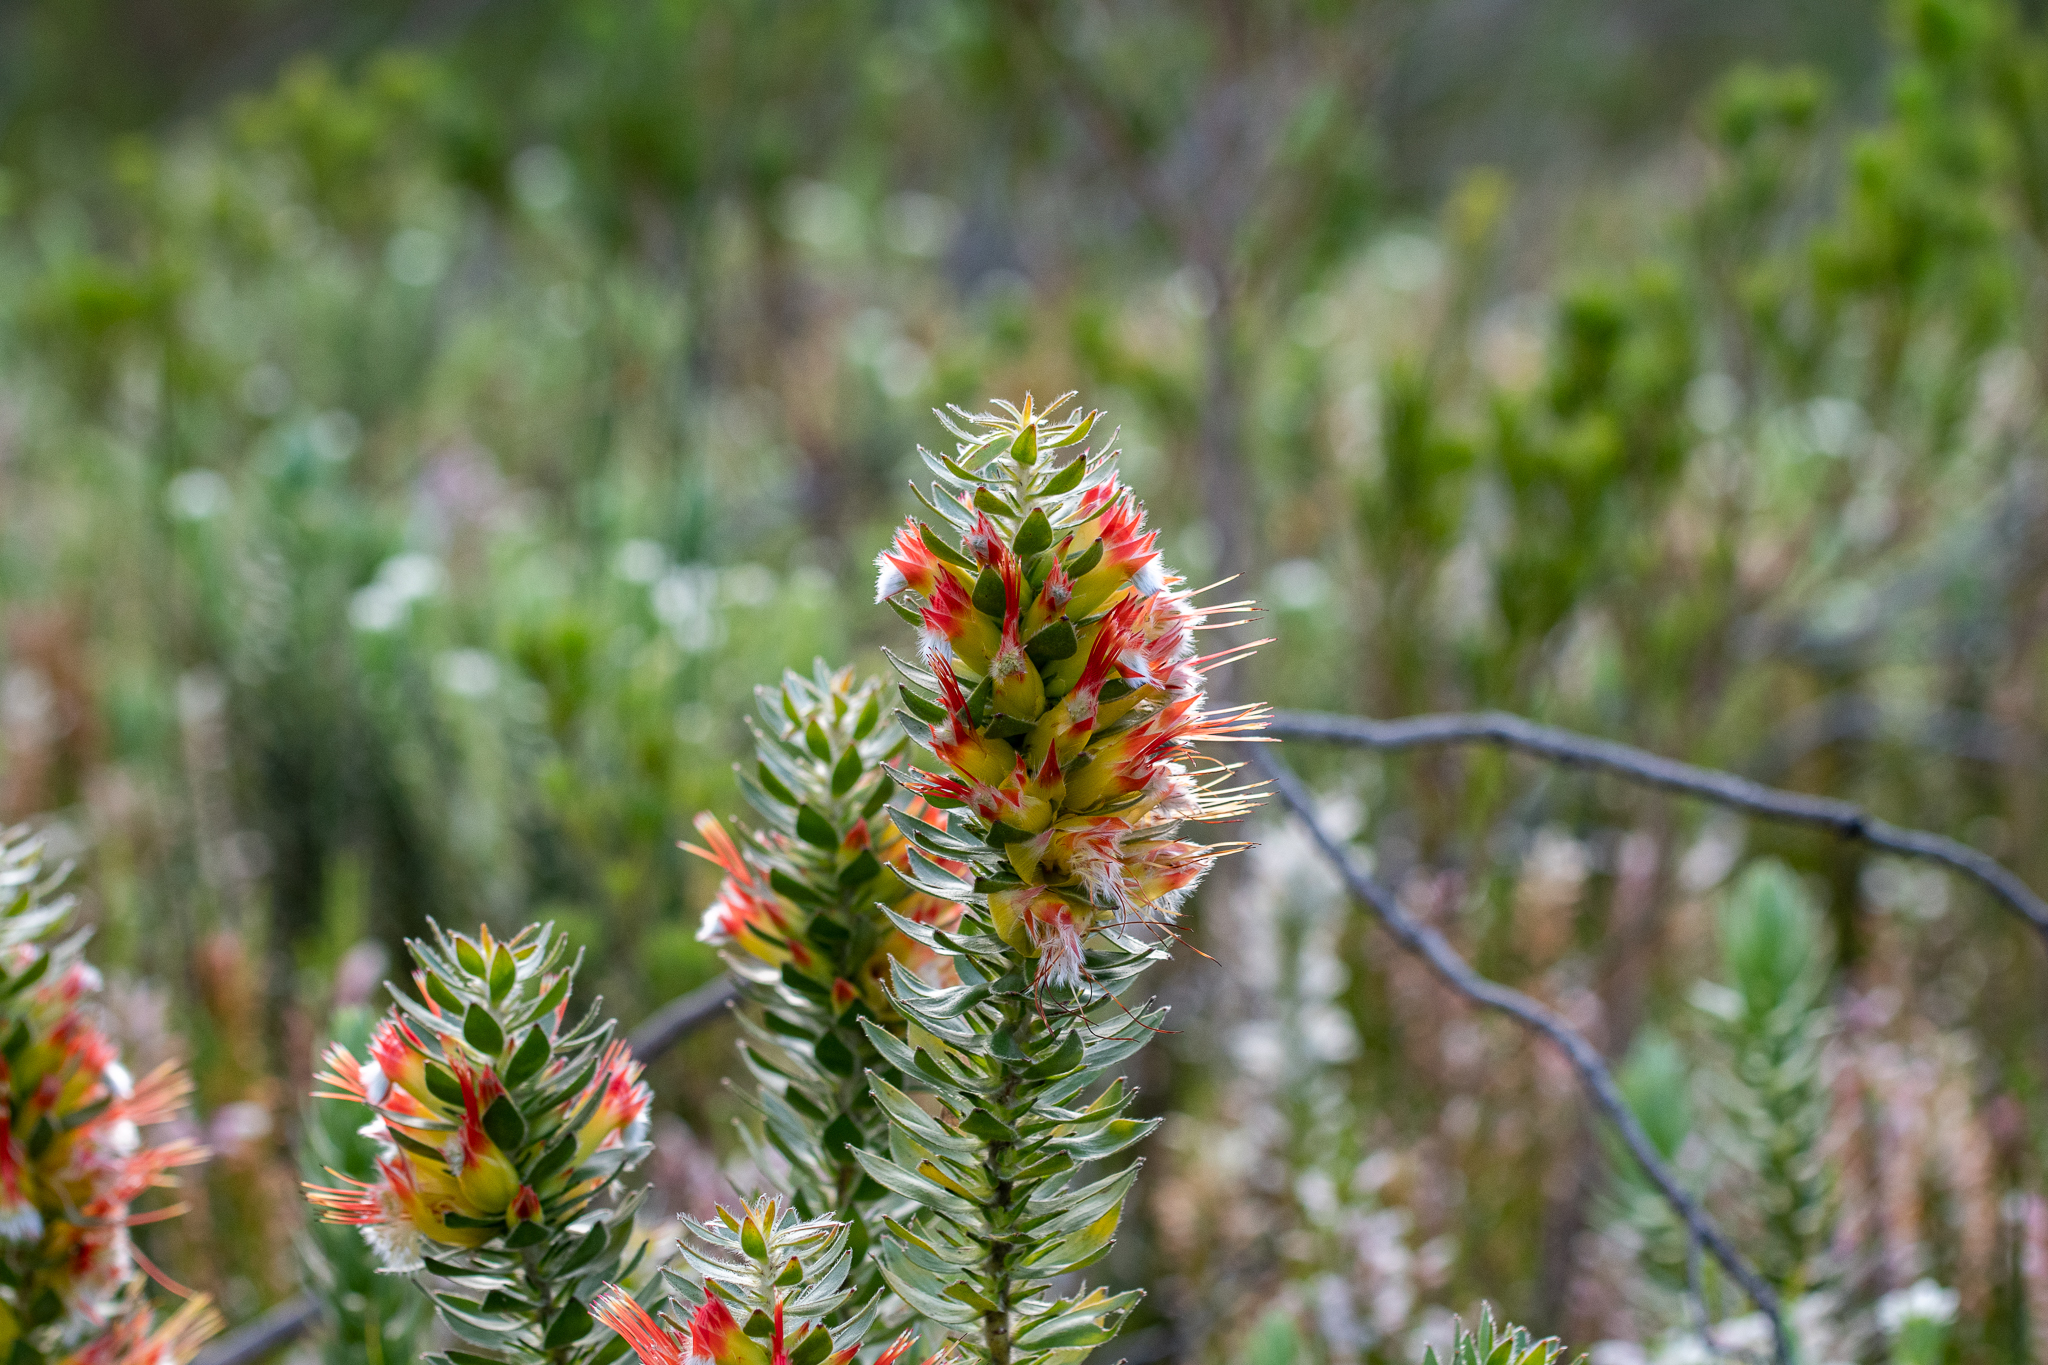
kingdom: Plantae
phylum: Tracheophyta
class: Magnoliopsida
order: Proteales
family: Proteaceae
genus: Mimetes
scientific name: Mimetes hirtus
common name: Marsh pagoda
